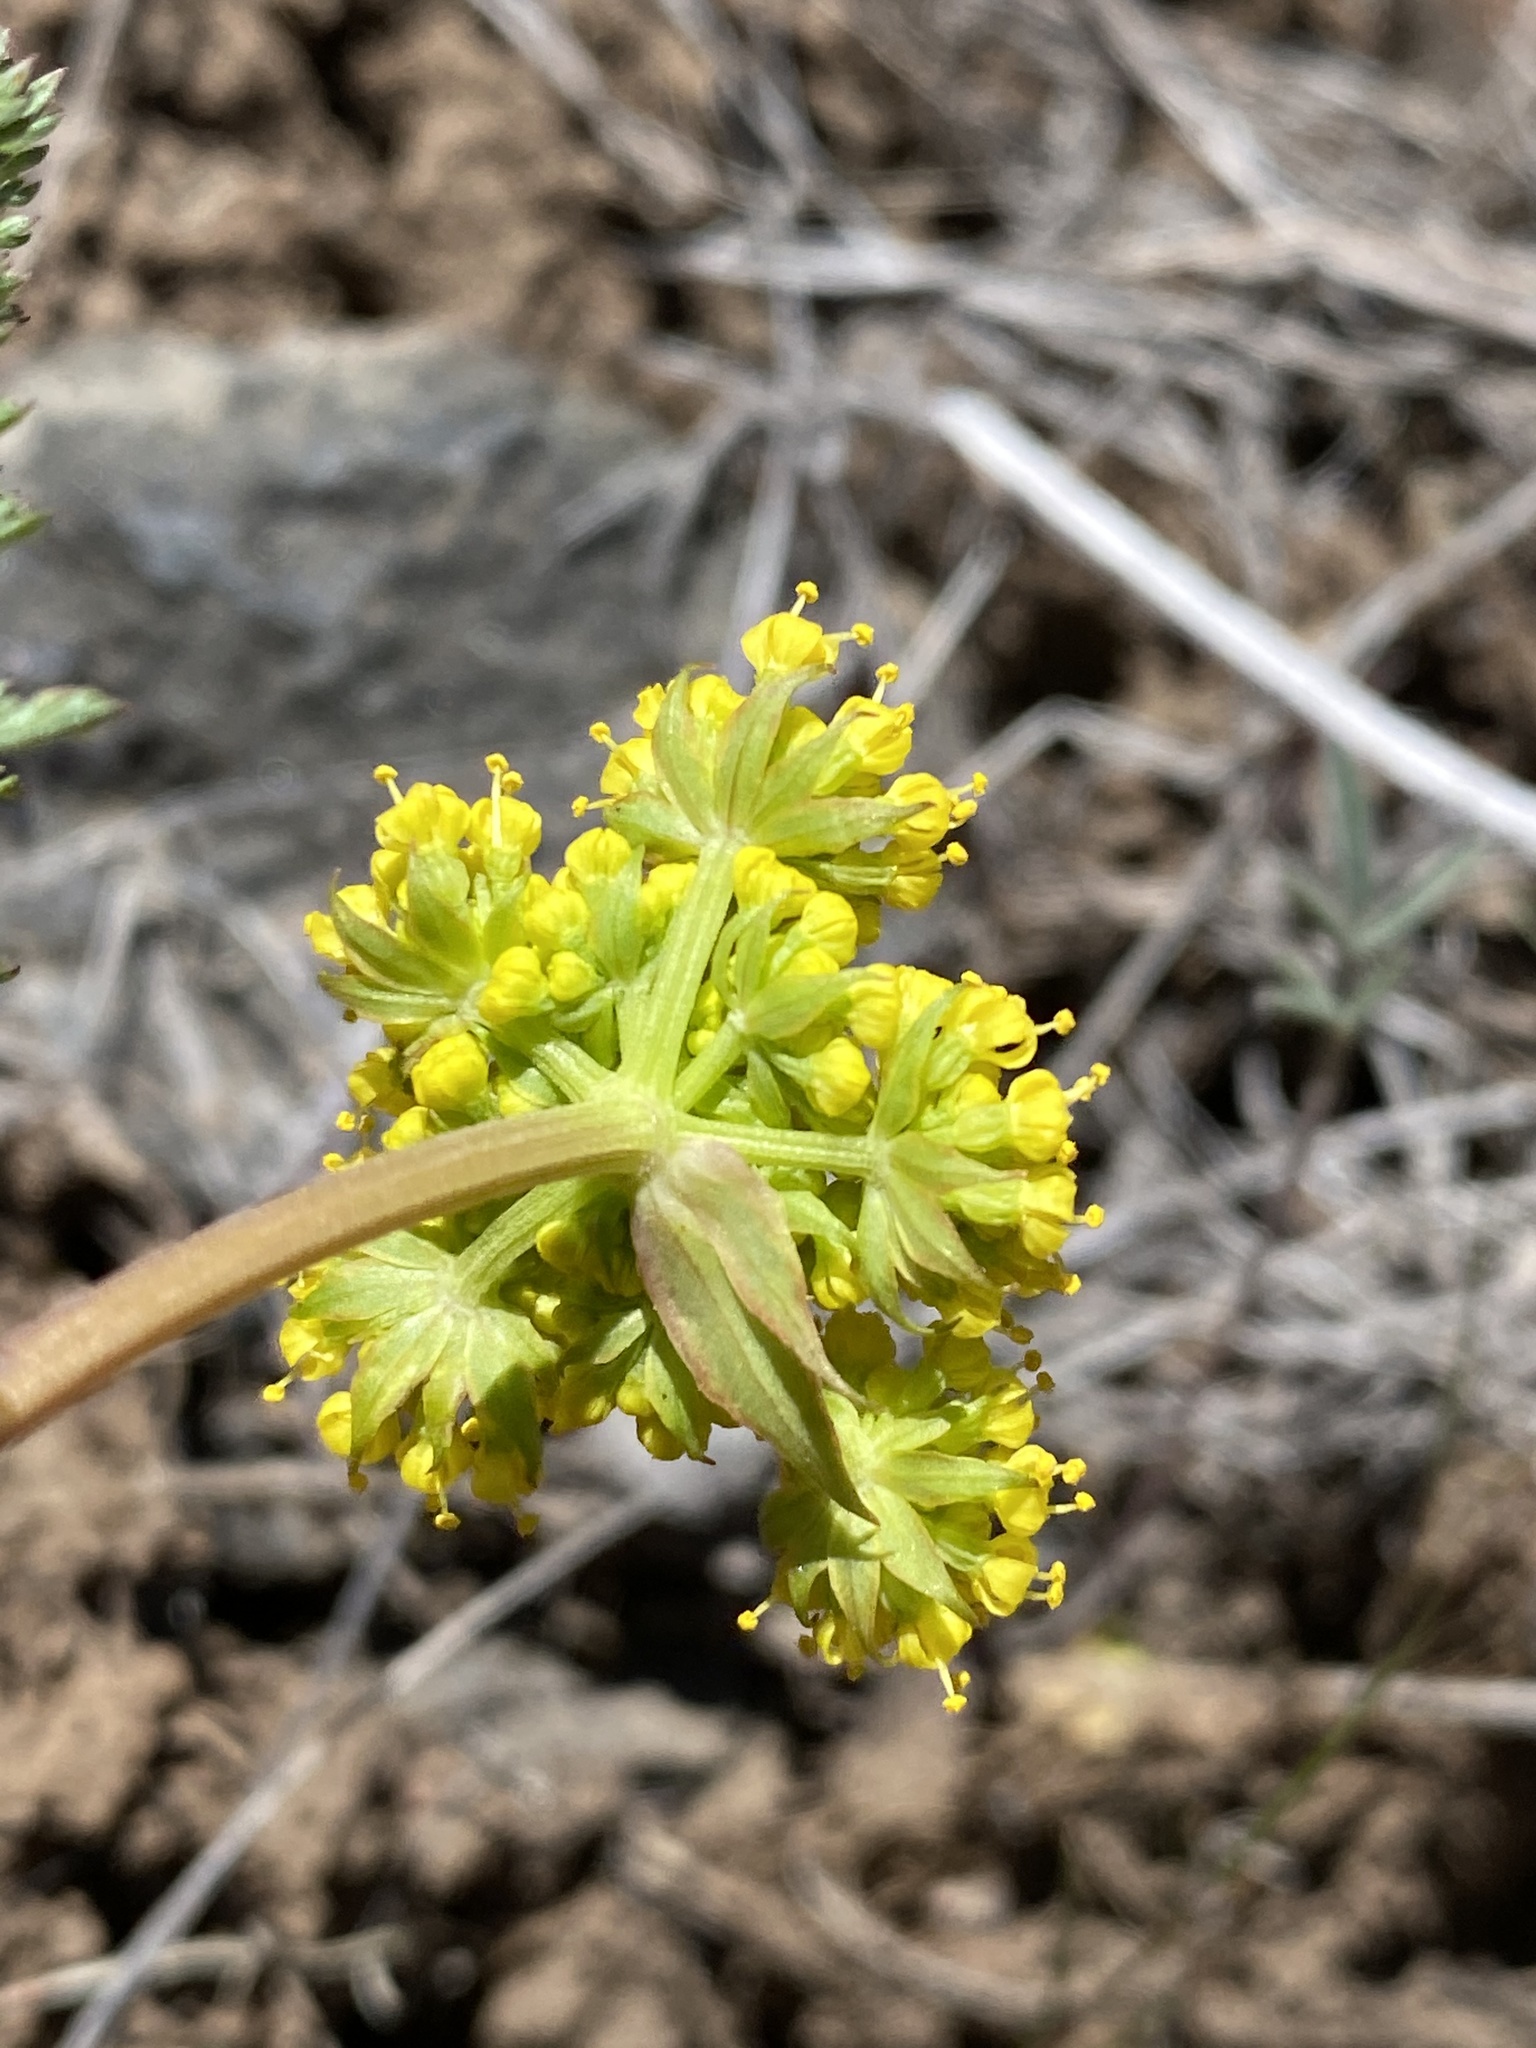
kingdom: Plantae
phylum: Tracheophyta
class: Magnoliopsida
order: Apiales
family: Apiaceae
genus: Lomatium
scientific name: Lomatium vaginatum
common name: Broadsheath desert-parsley
